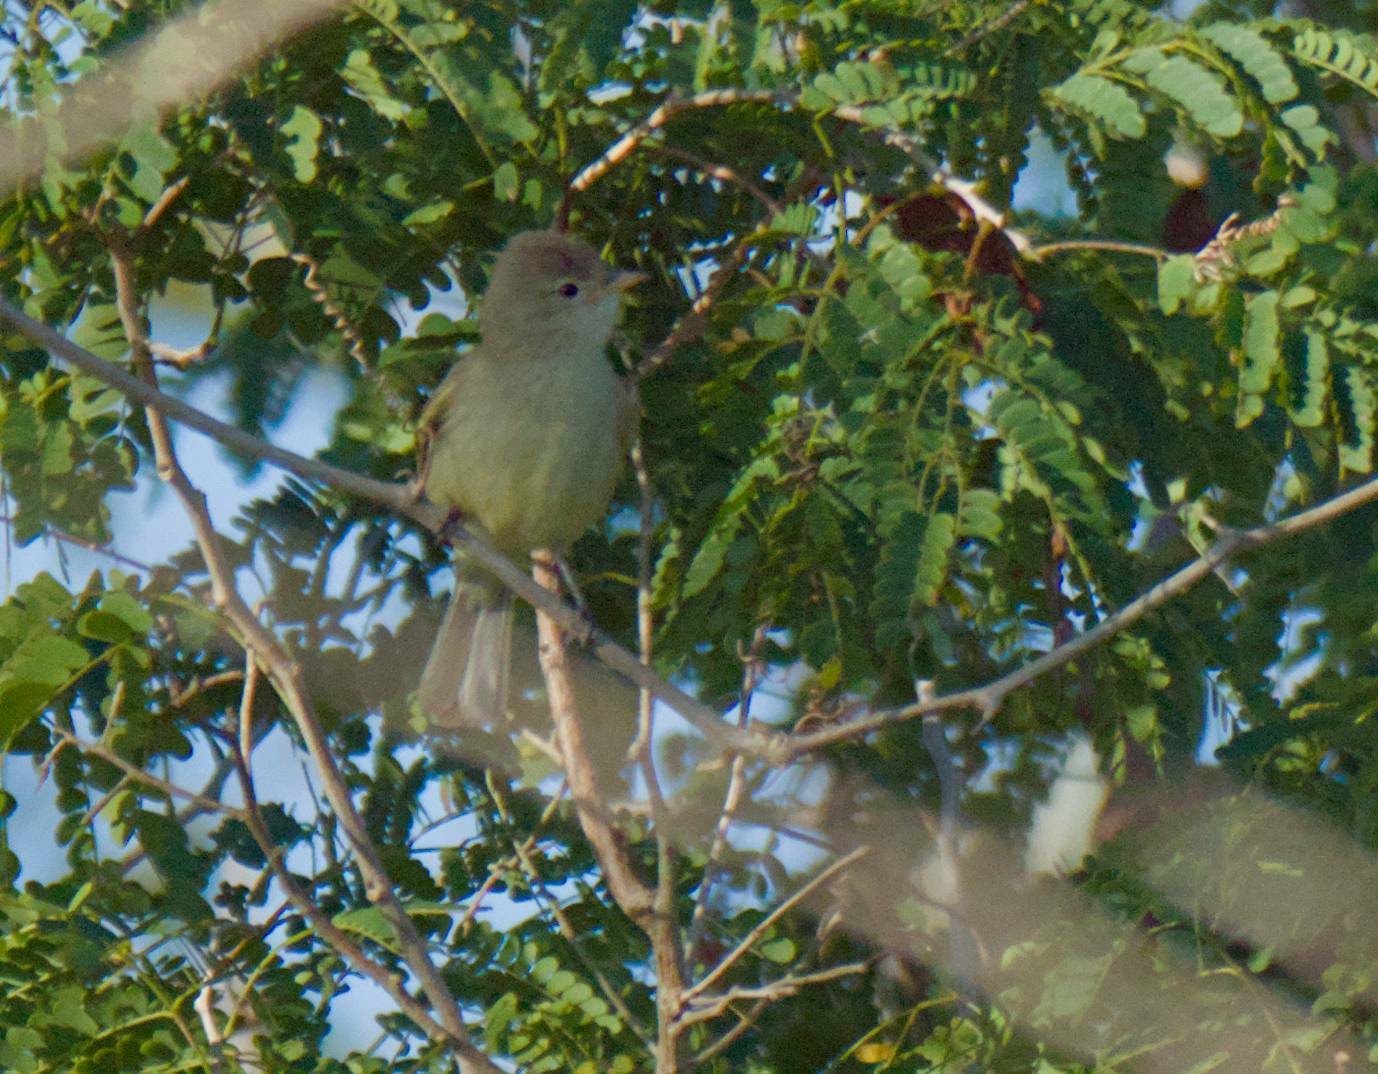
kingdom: Animalia
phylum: Chordata
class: Aves
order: Passeriformes
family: Tyrannidae
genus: Camptostoma
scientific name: Camptostoma imberbe
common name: Northern beardless-tyrannulet
